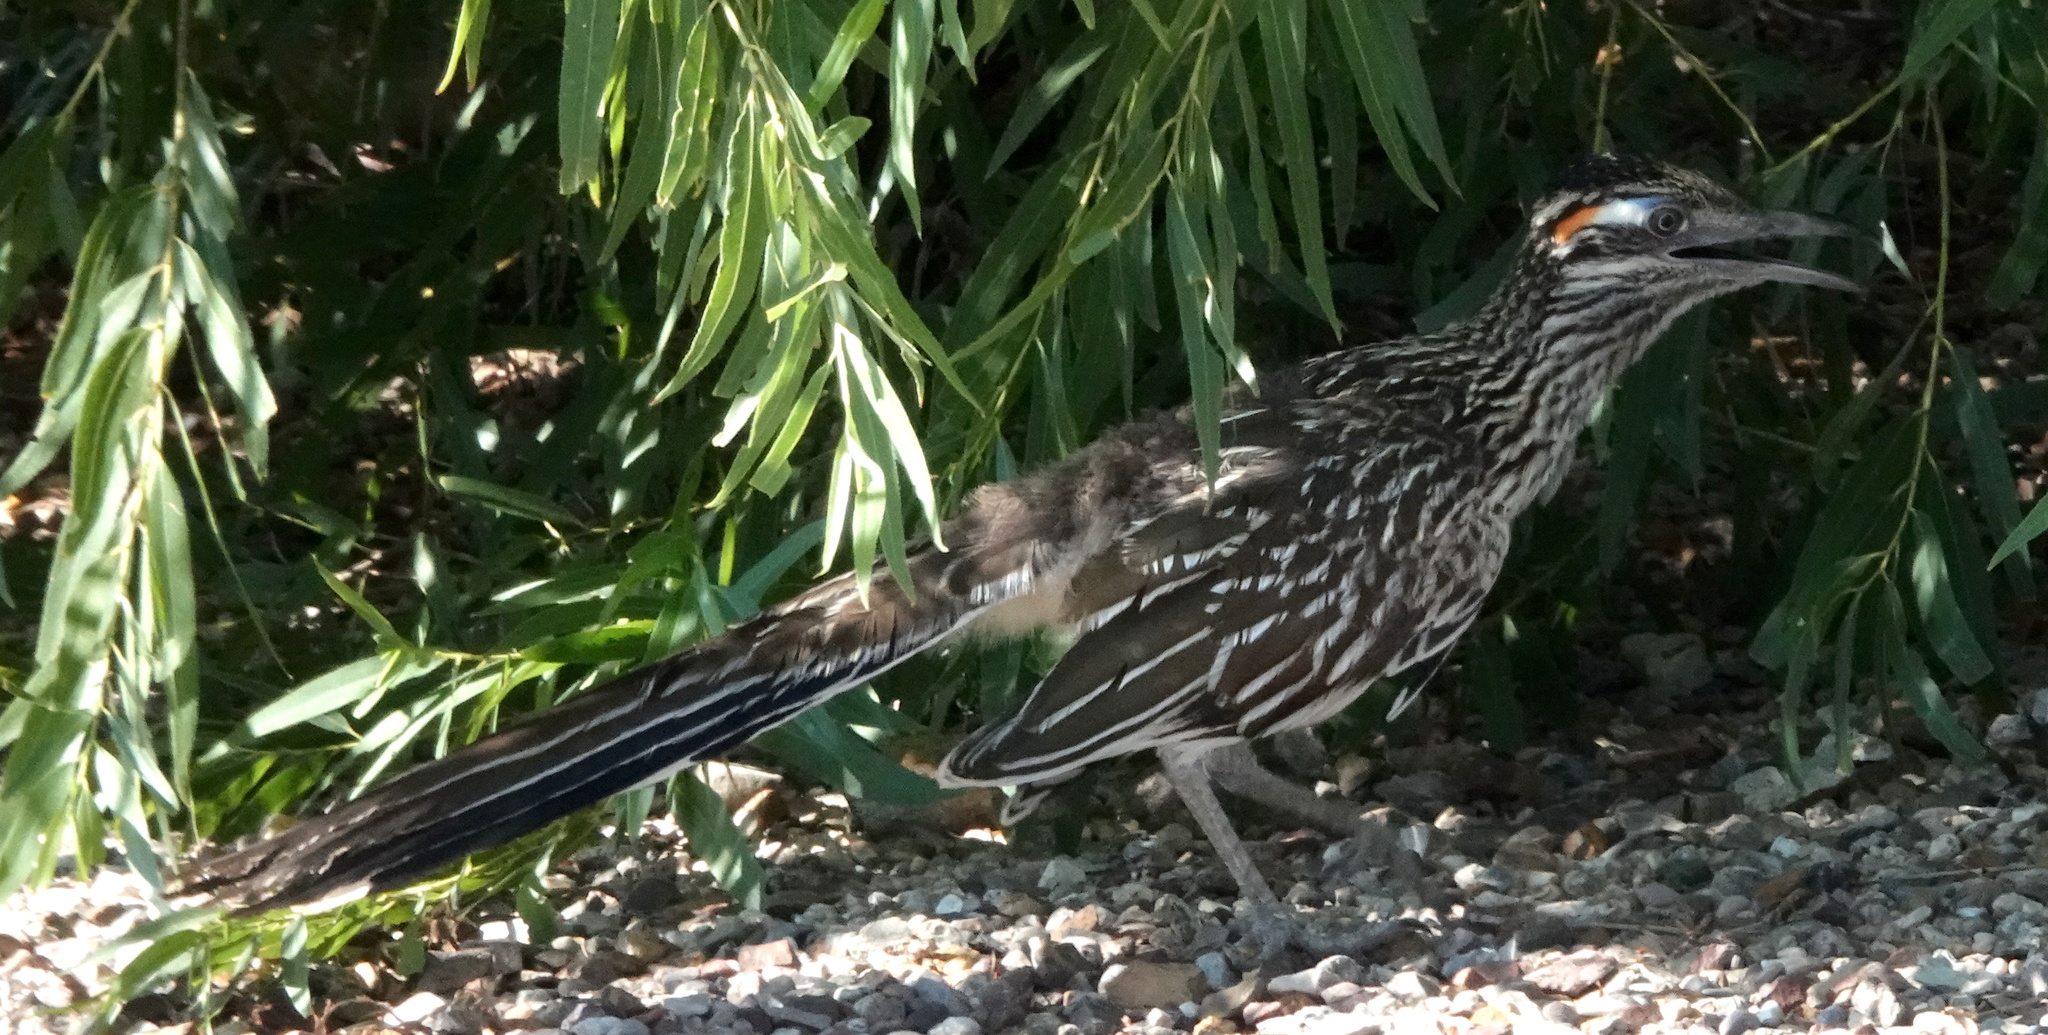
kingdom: Animalia
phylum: Chordata
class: Aves
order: Cuculiformes
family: Cuculidae
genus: Geococcyx
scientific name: Geococcyx californianus
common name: Greater roadrunner
